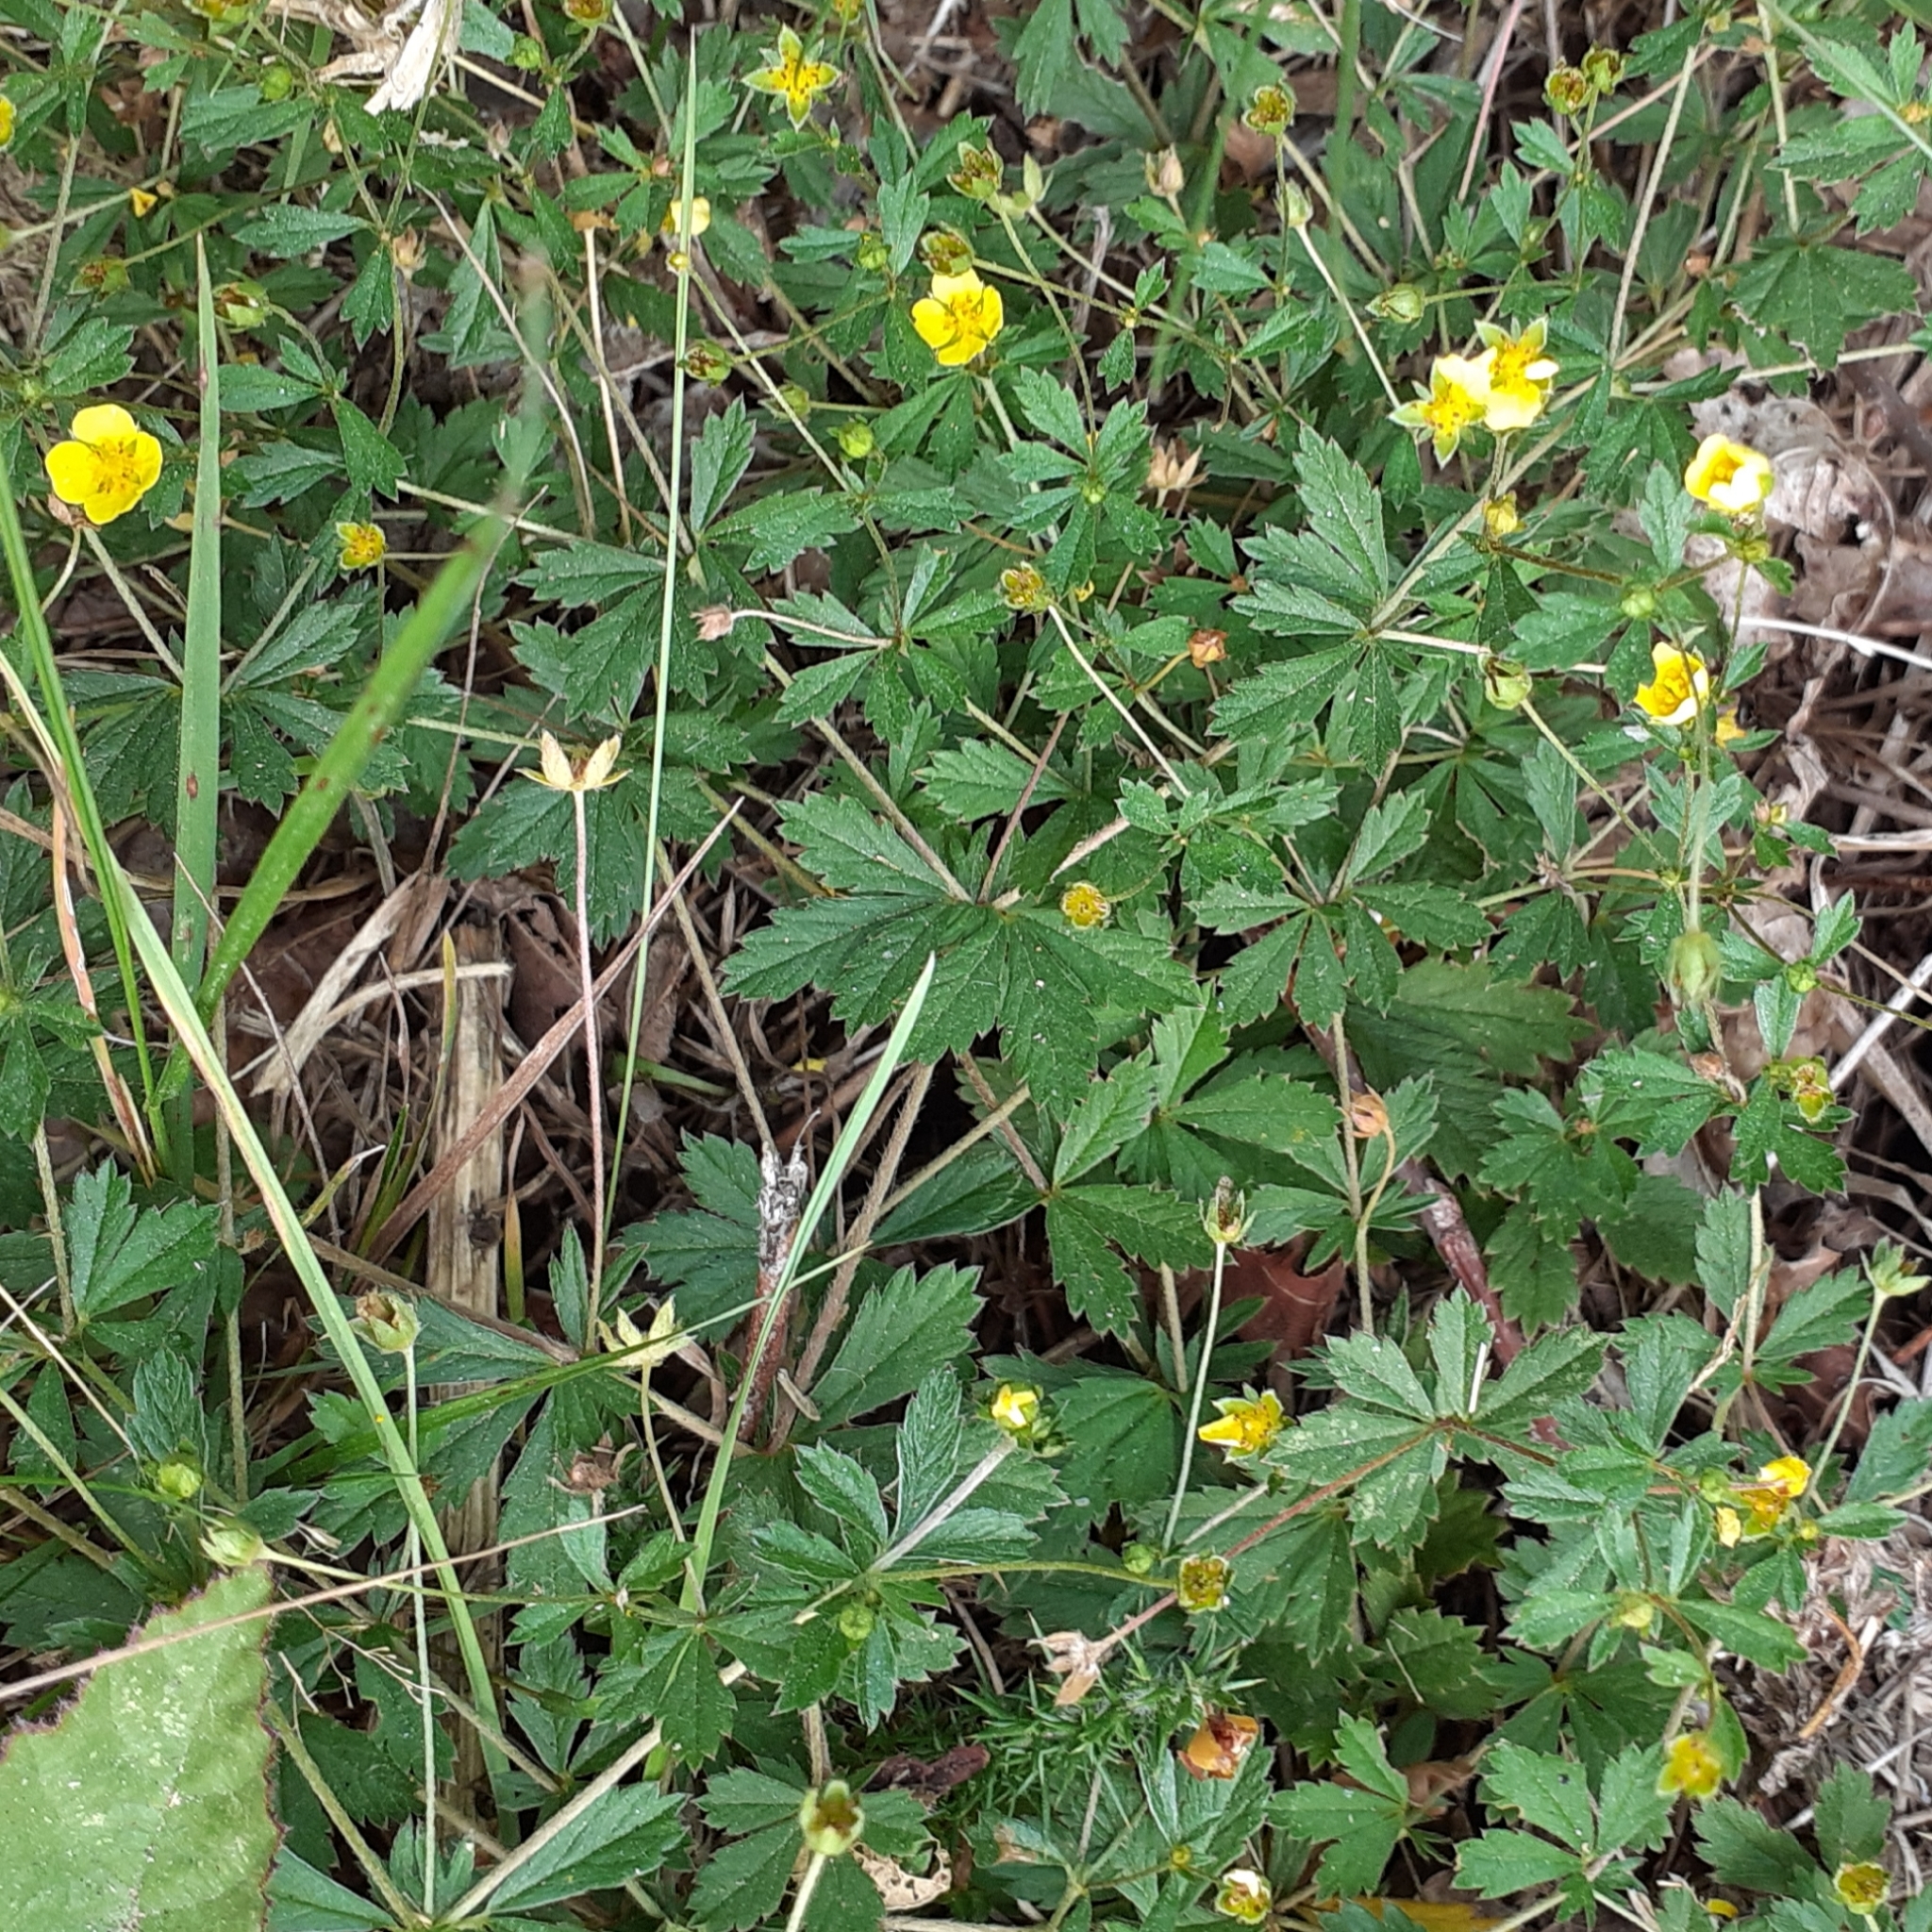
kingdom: Plantae
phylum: Tracheophyta
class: Magnoliopsida
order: Rosales
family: Rosaceae
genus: Potentilla
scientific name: Potentilla erecta
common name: Tormentil
